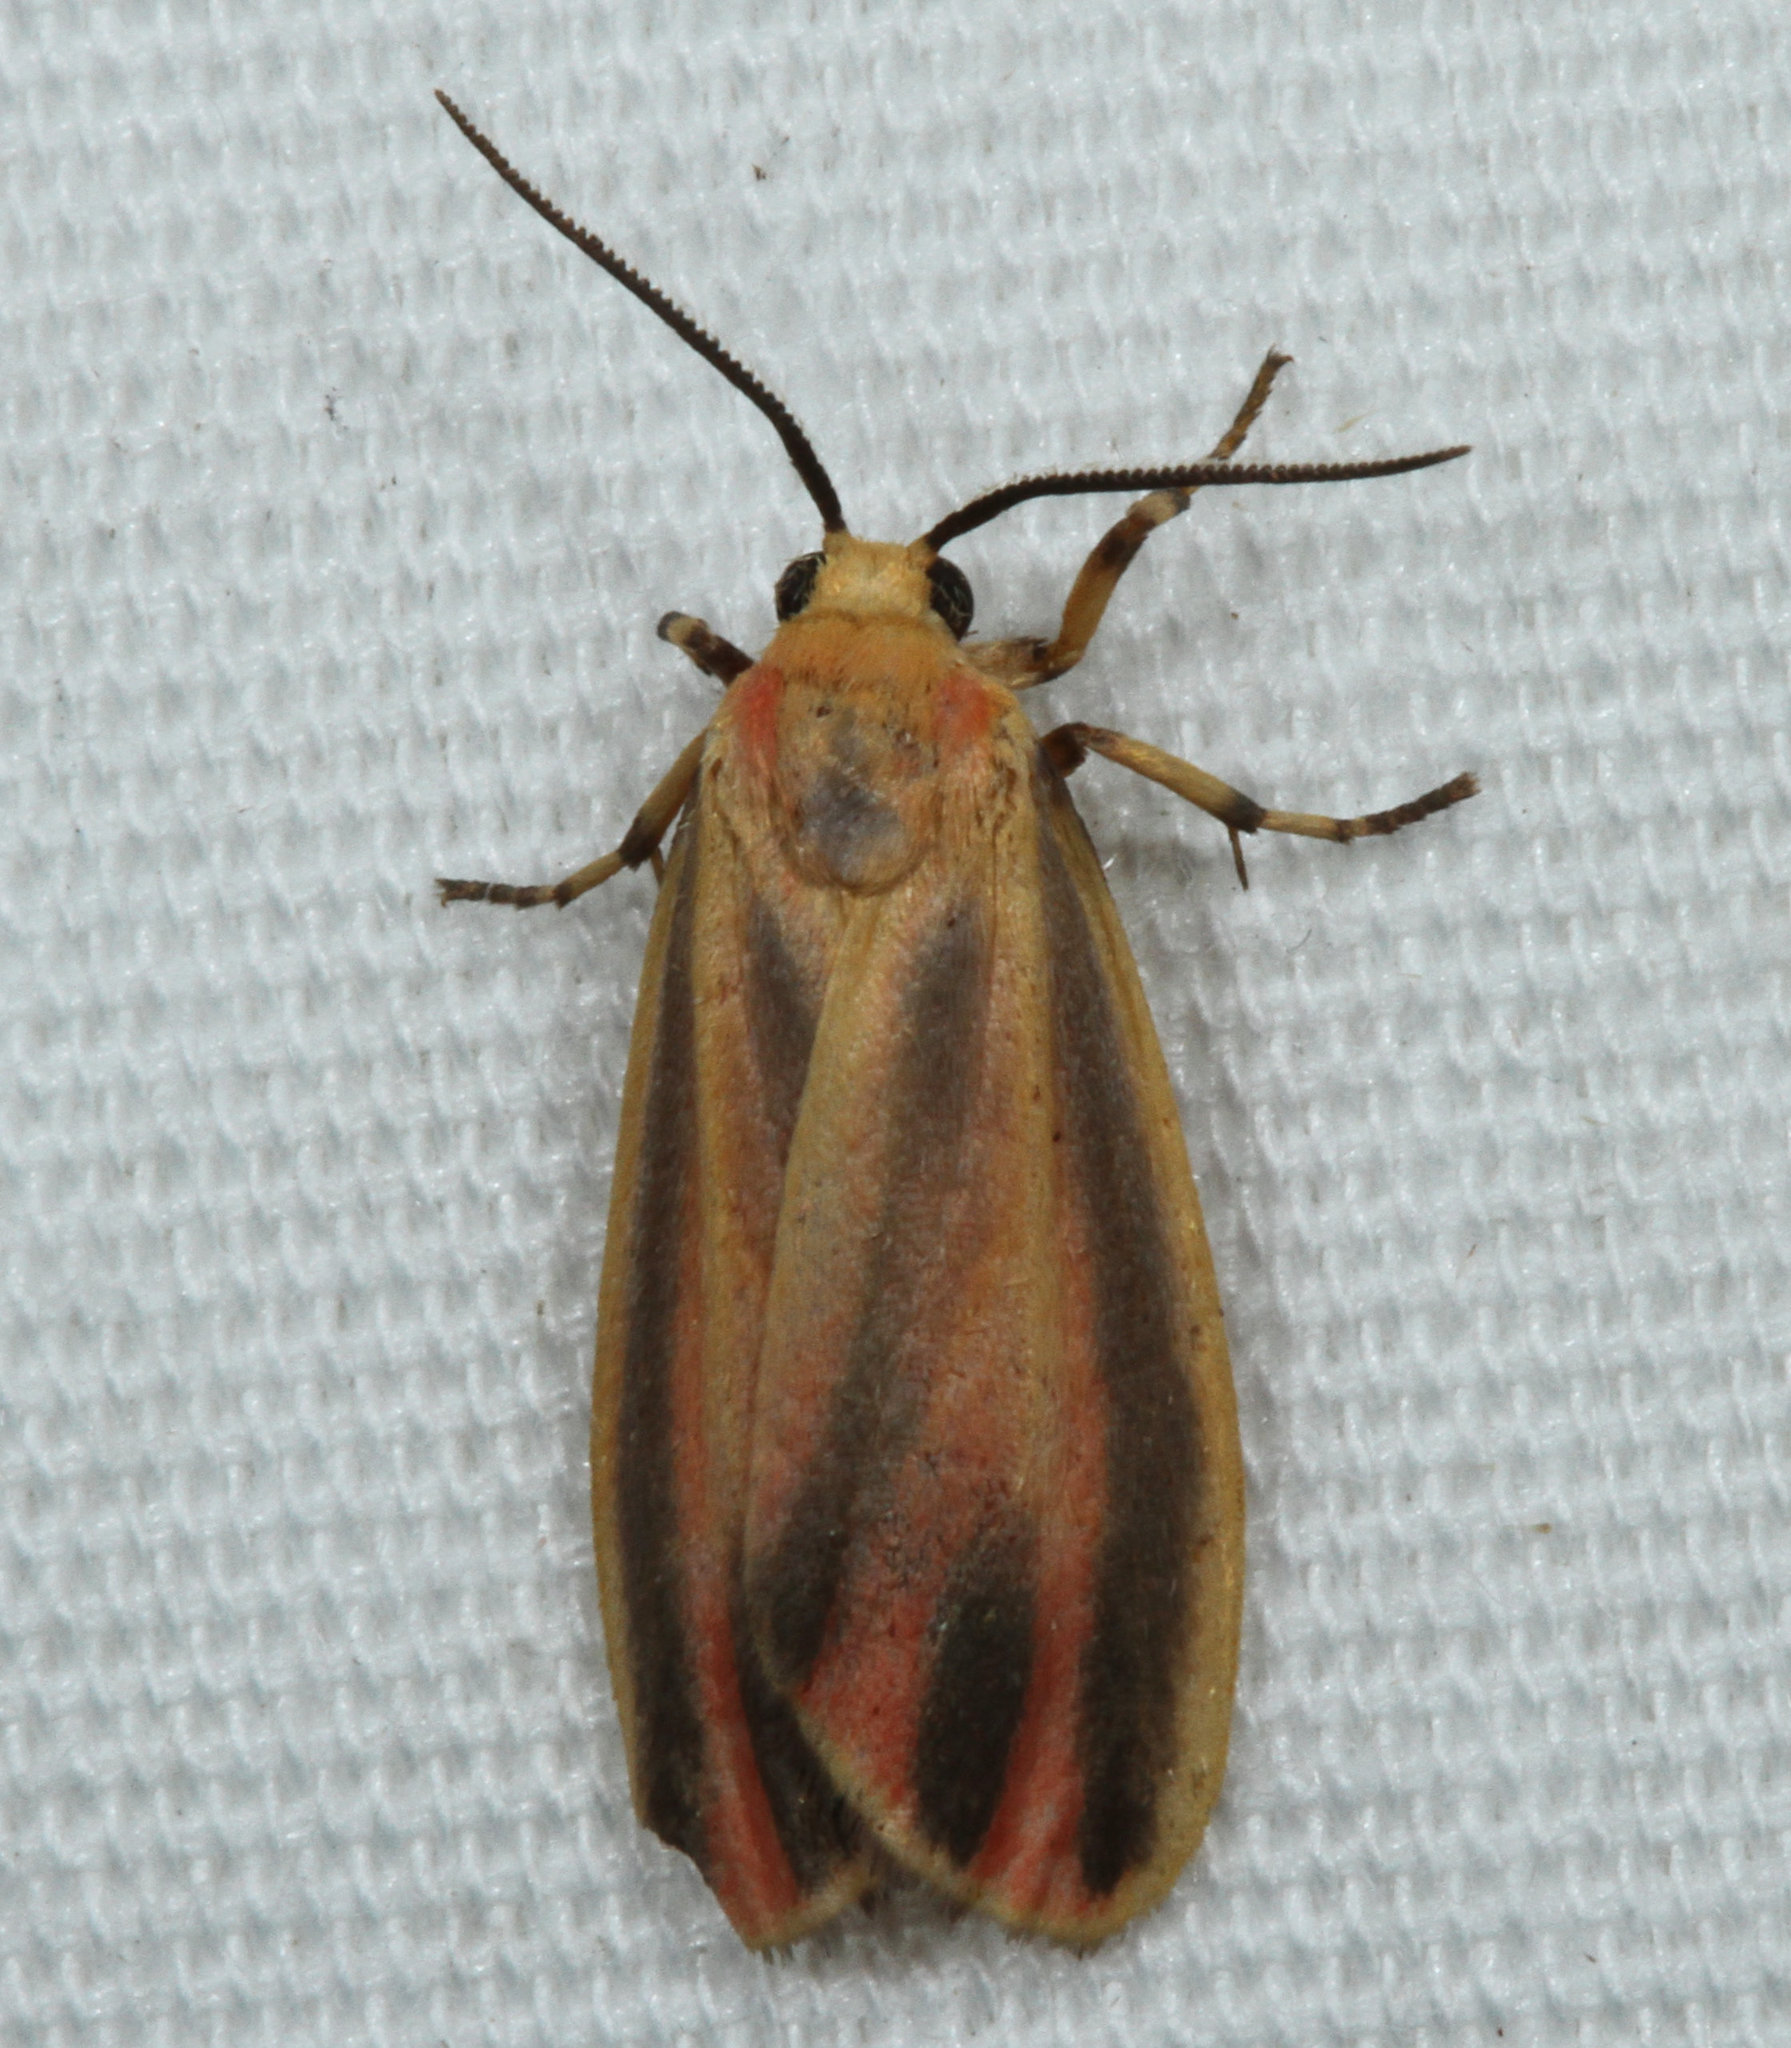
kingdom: Animalia
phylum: Arthropoda
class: Insecta
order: Lepidoptera
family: Erebidae
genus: Hypoprepia
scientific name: Hypoprepia fucosa
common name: Painted lichen moth
